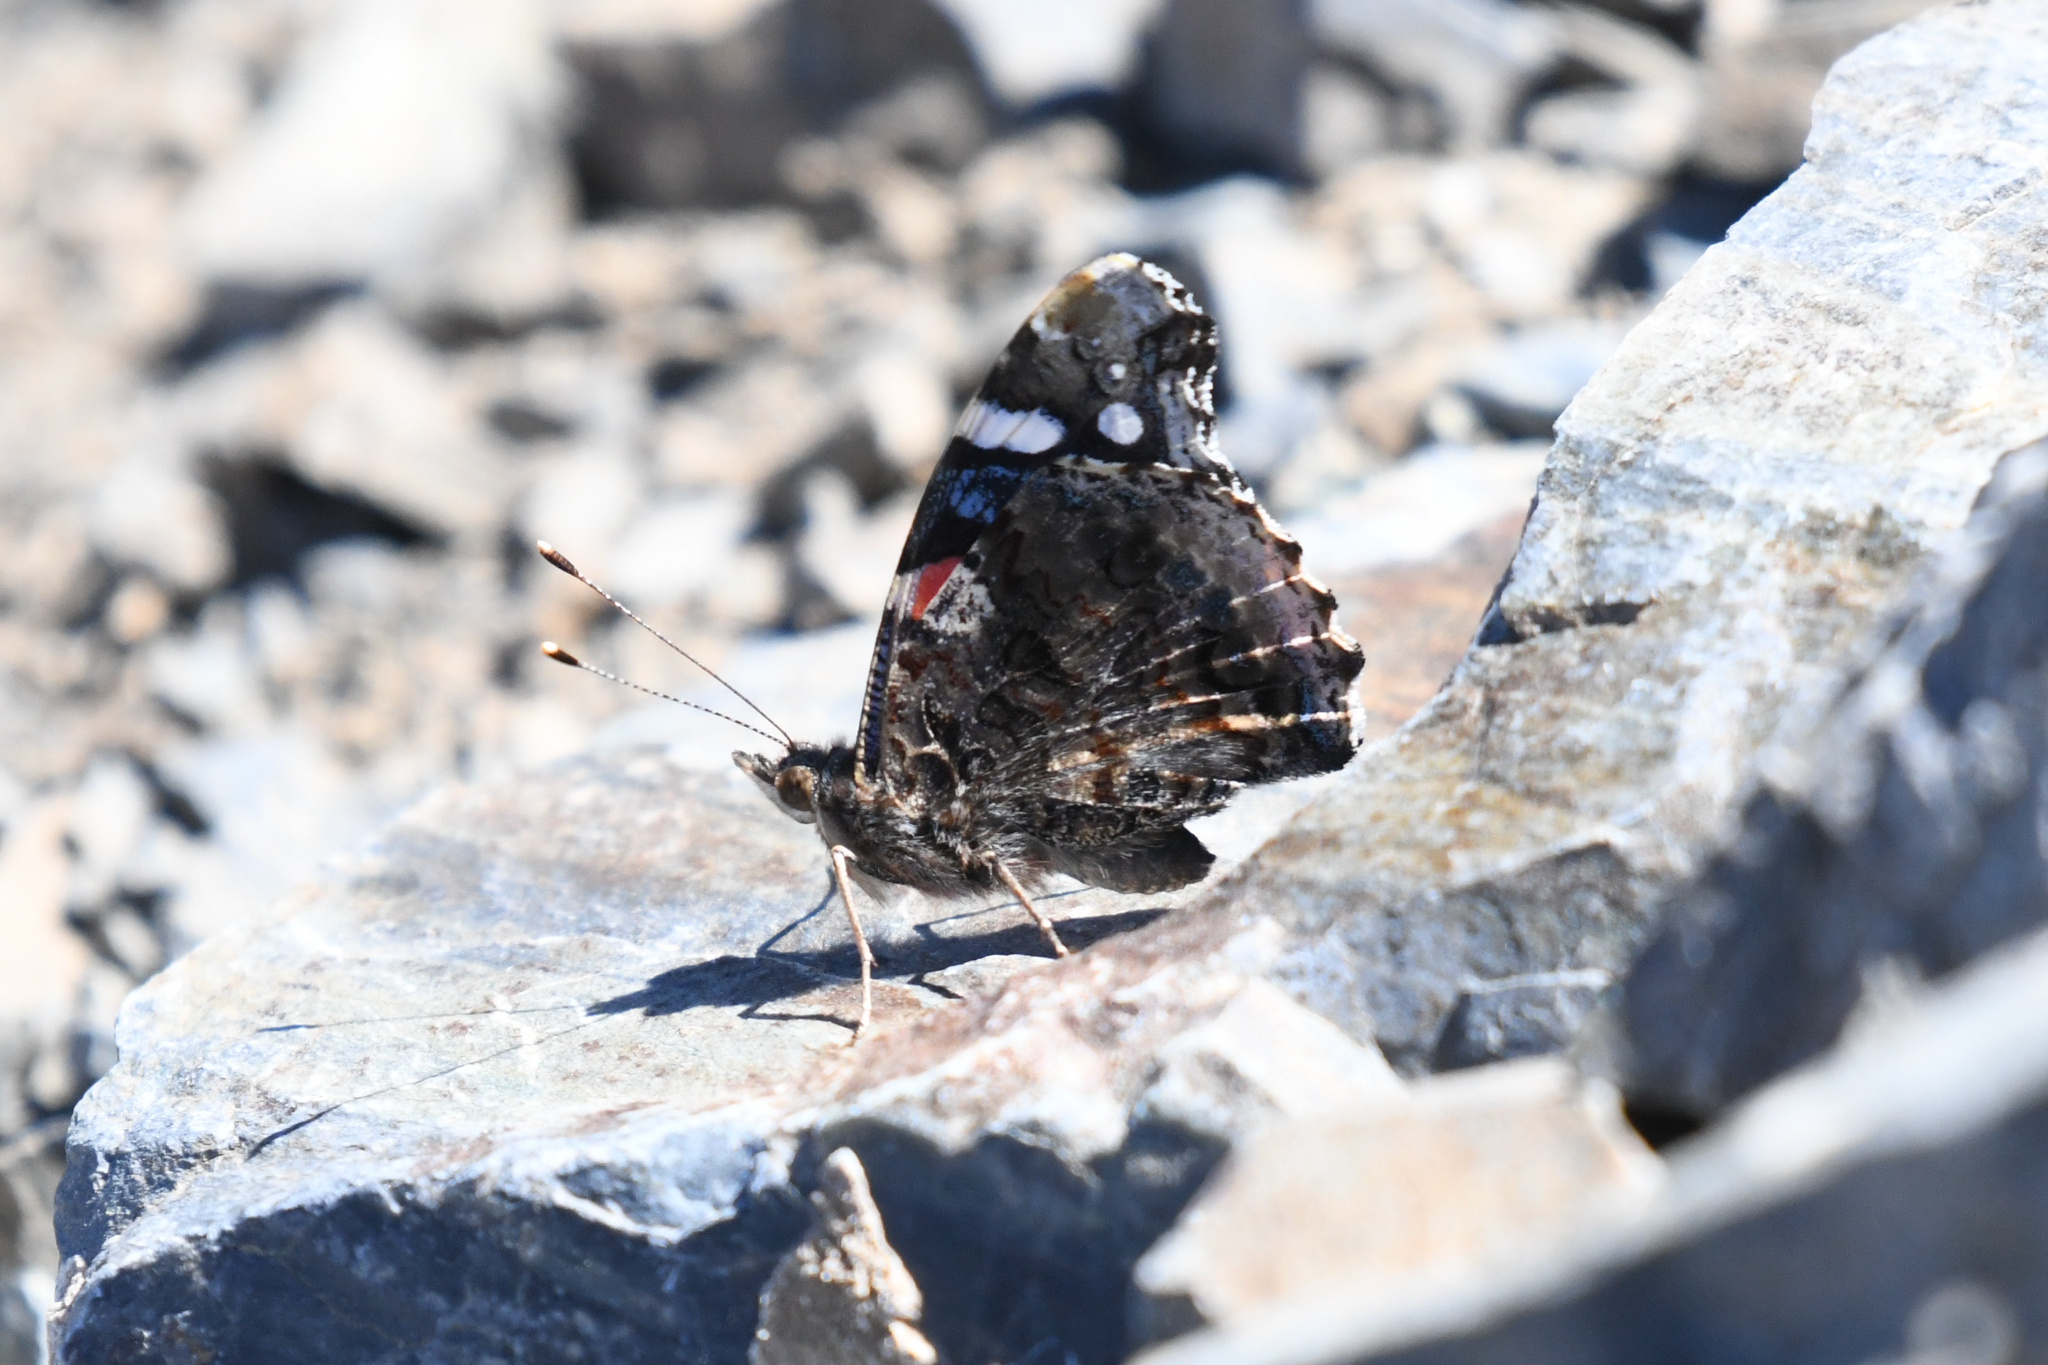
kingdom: Animalia
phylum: Arthropoda
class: Insecta
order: Lepidoptera
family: Nymphalidae
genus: Vanessa
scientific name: Vanessa atalanta
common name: Red admiral
